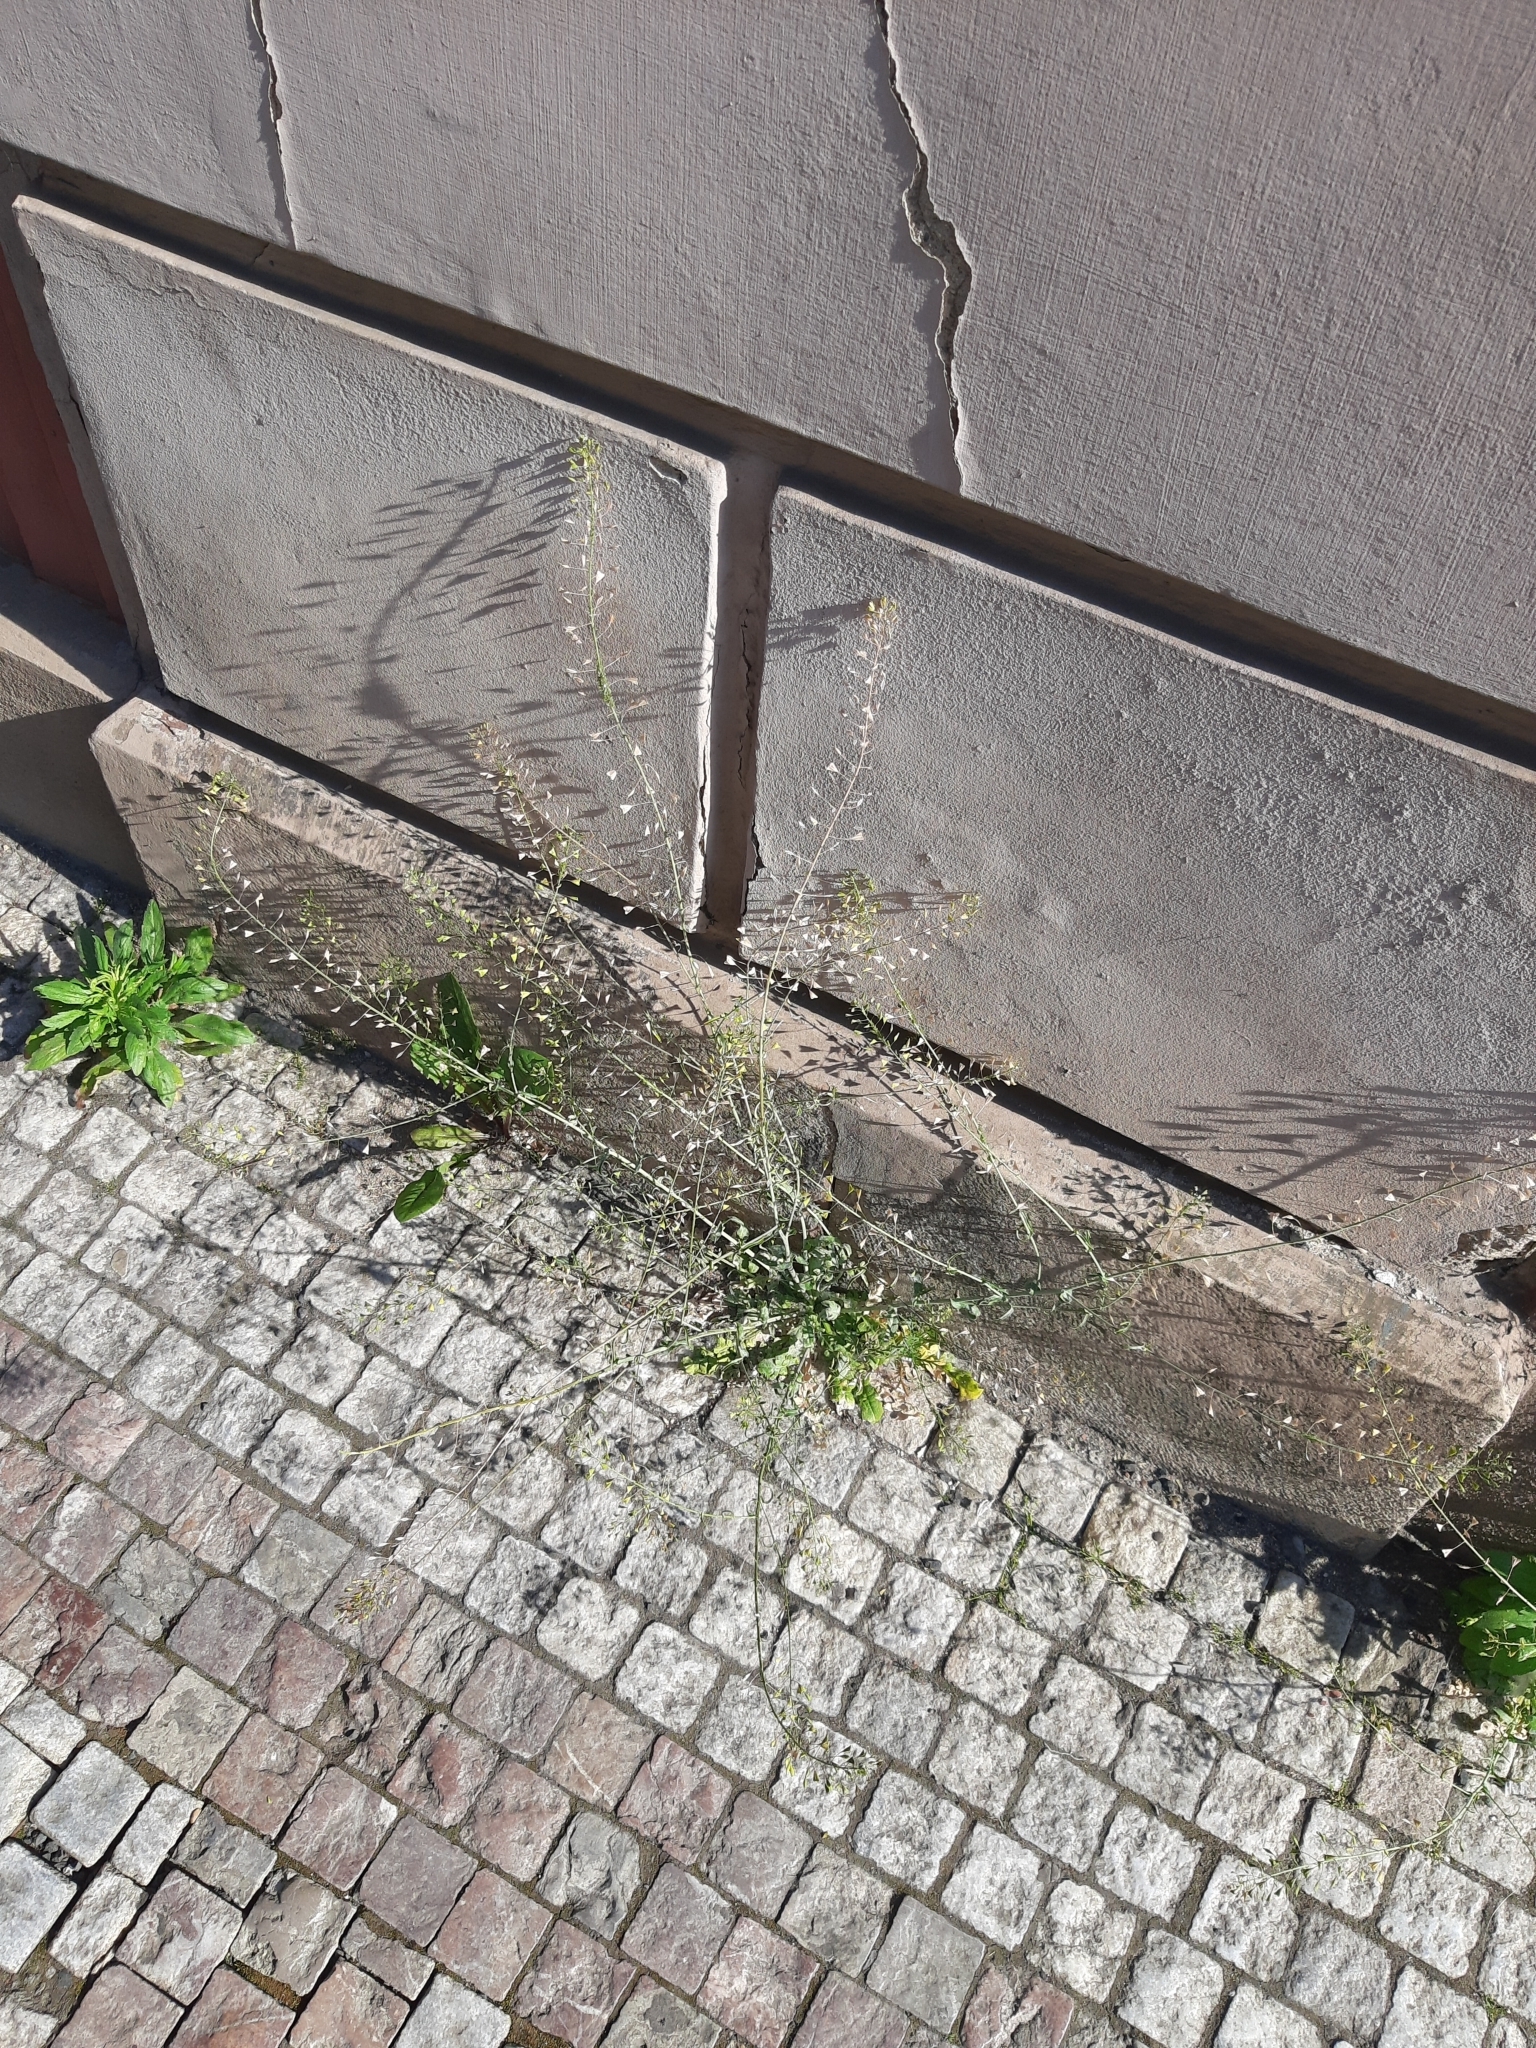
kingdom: Plantae
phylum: Tracheophyta
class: Magnoliopsida
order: Brassicales
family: Brassicaceae
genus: Capsella
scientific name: Capsella bursa-pastoris
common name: Shepherd's purse
